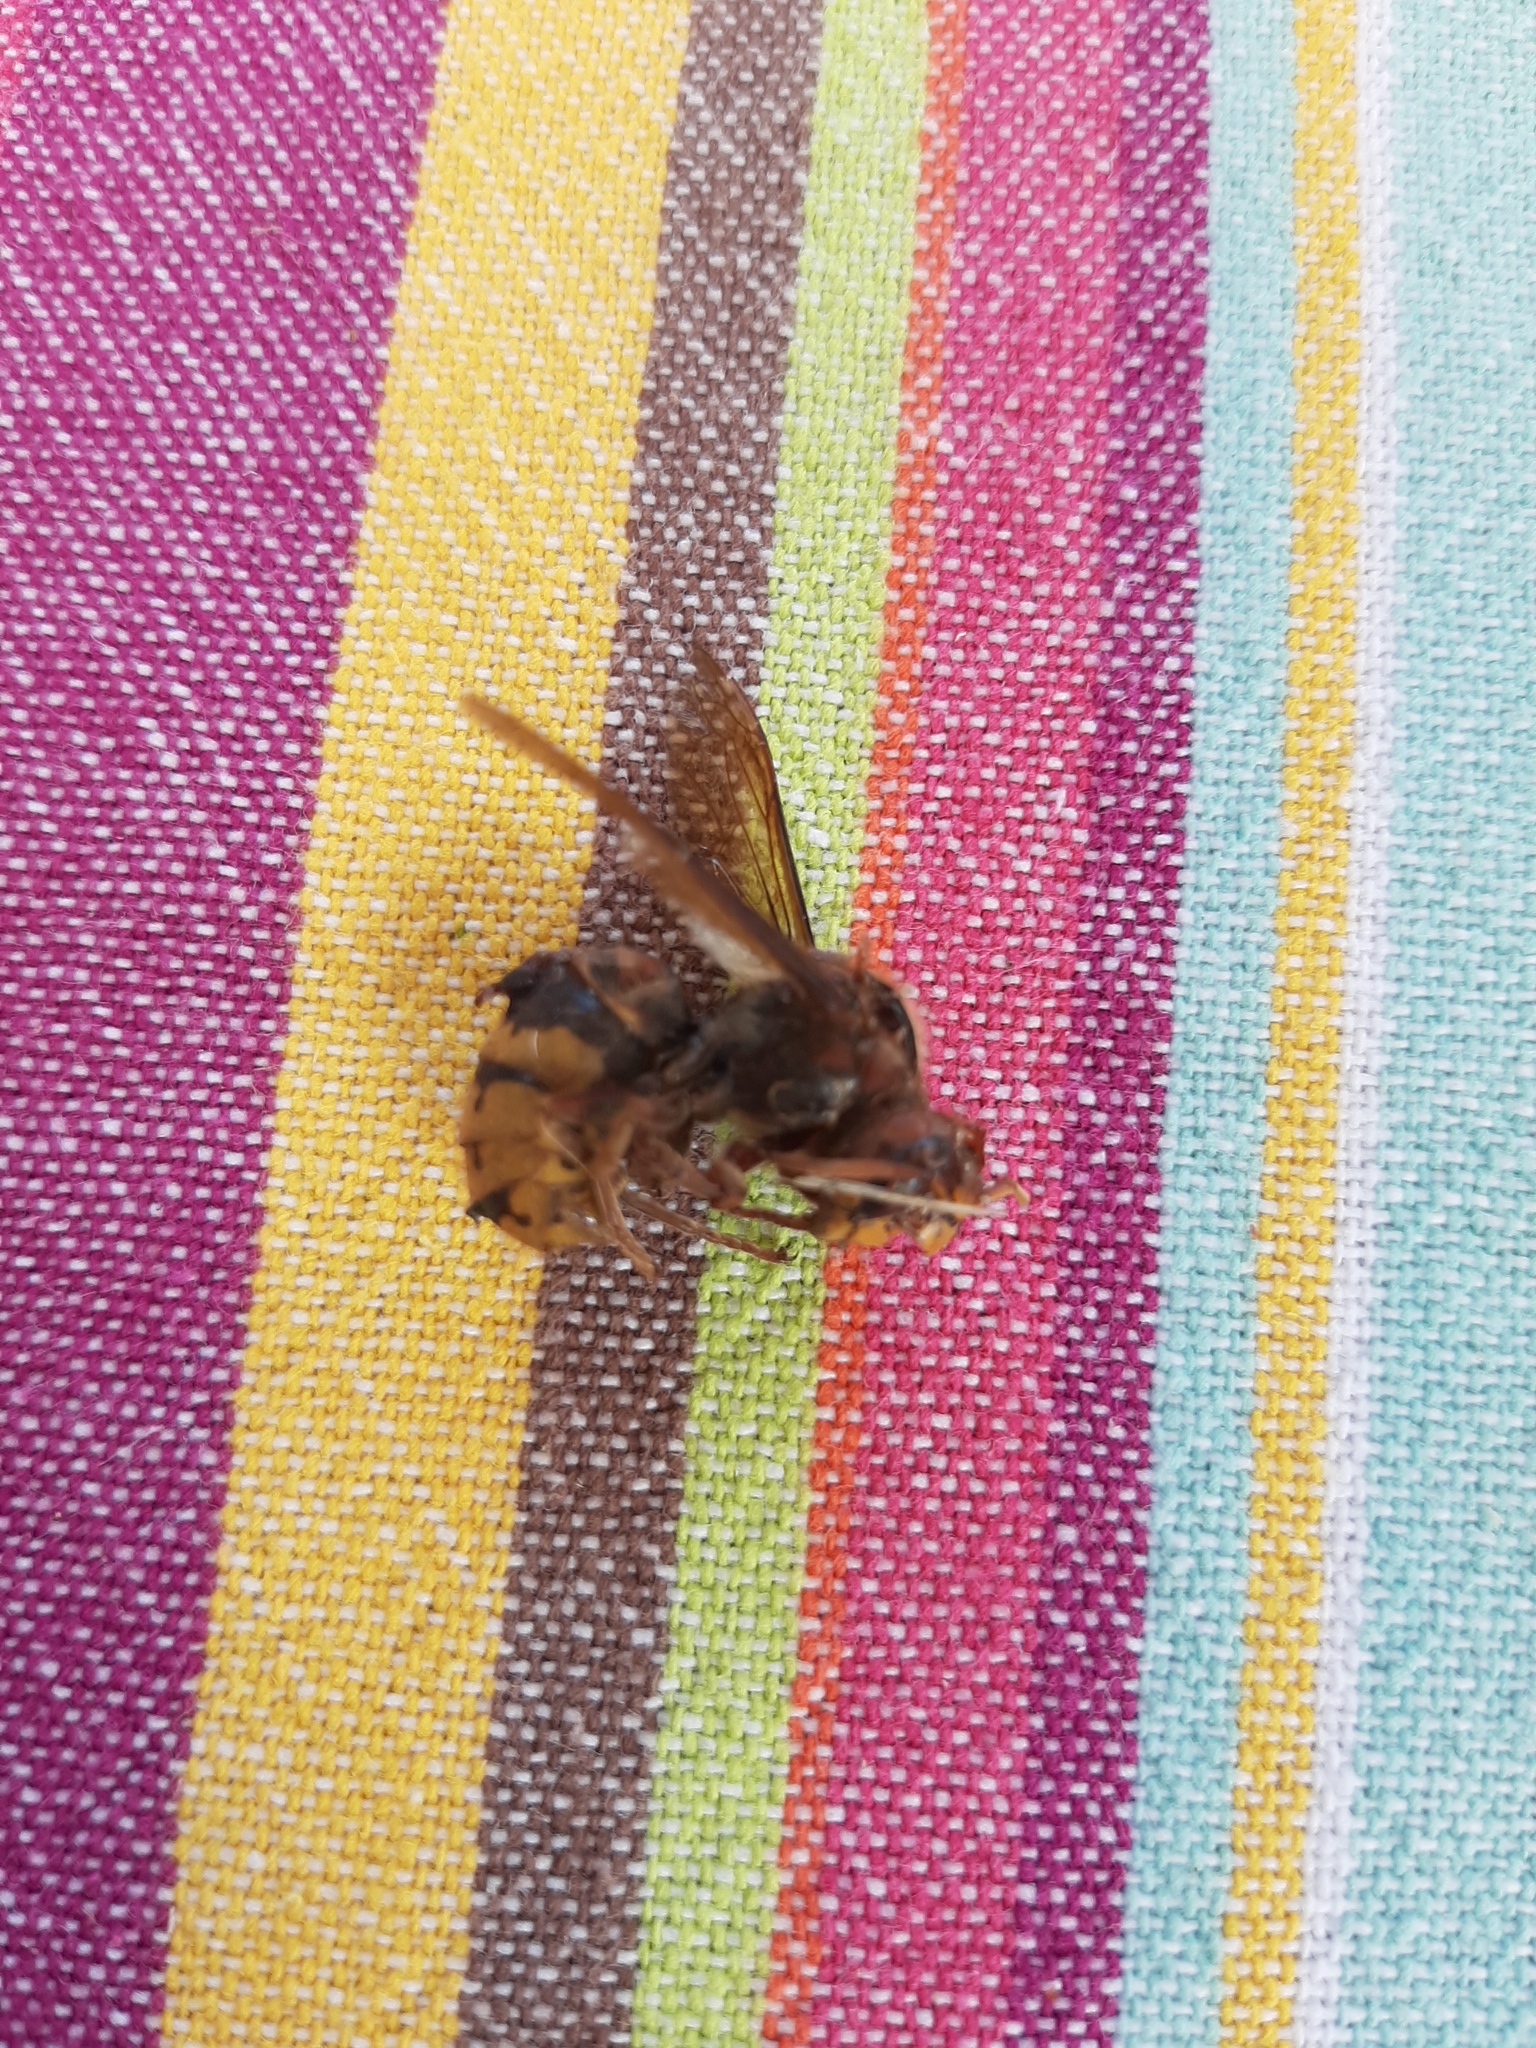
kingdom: Animalia
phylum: Arthropoda
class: Insecta
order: Hymenoptera
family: Vespidae
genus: Vespa
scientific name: Vespa crabro
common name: Hornet
